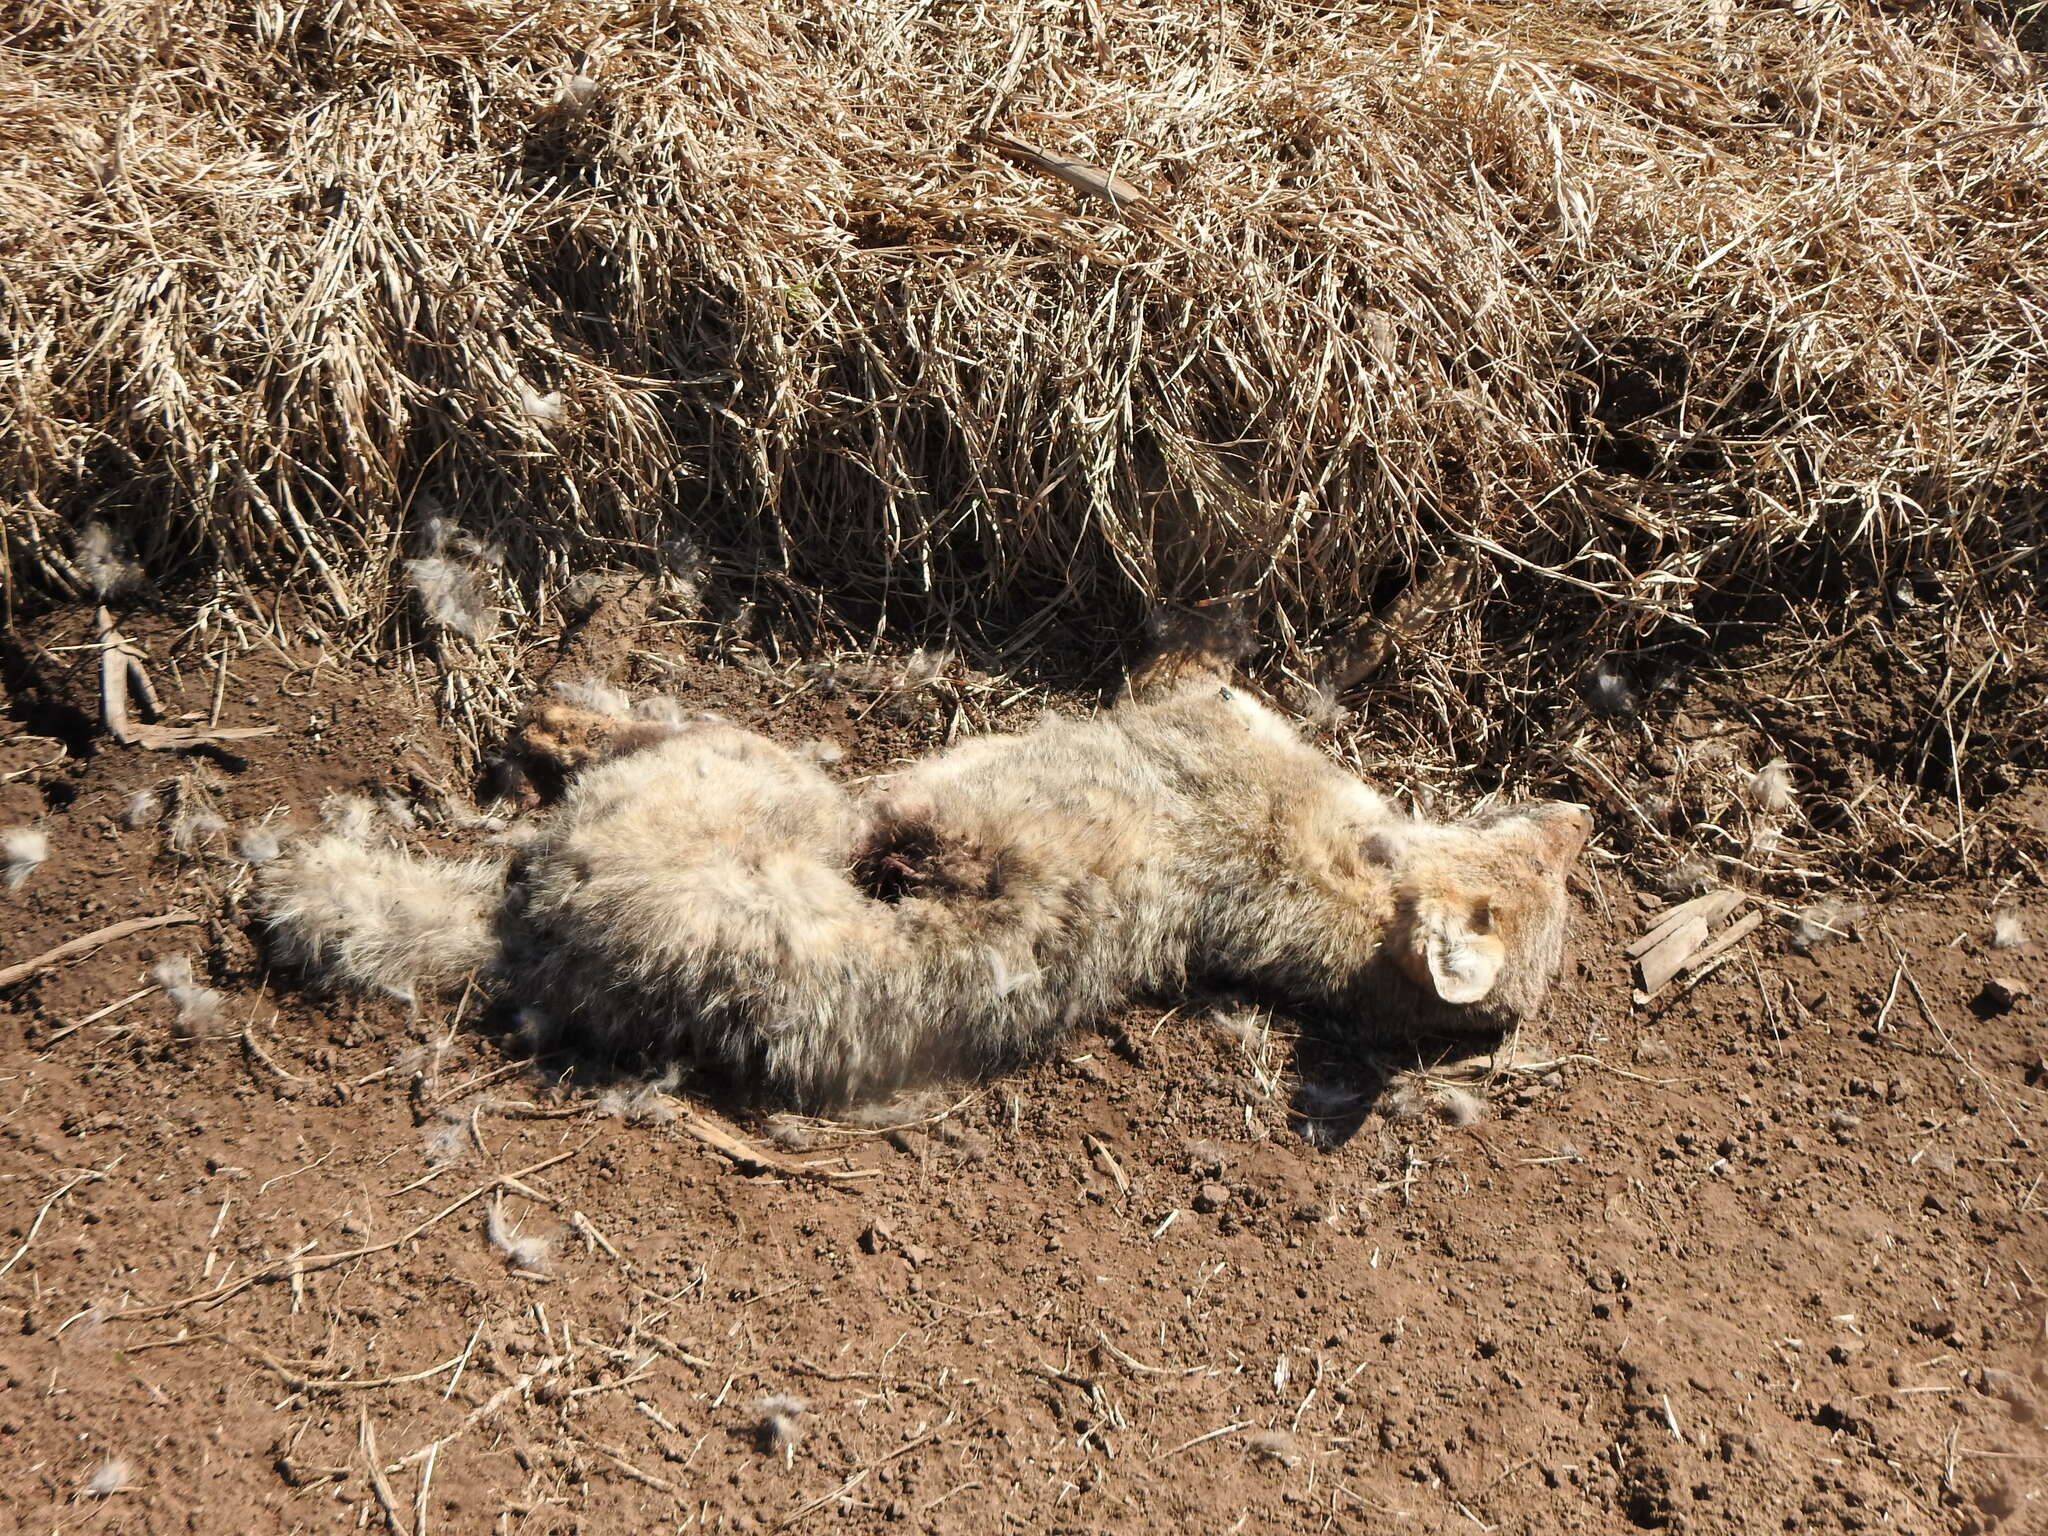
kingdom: Animalia
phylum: Chordata
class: Mammalia
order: Carnivora
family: Canidae
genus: Lycalopex
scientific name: Lycalopex gymnocercus
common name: Pampas fox
